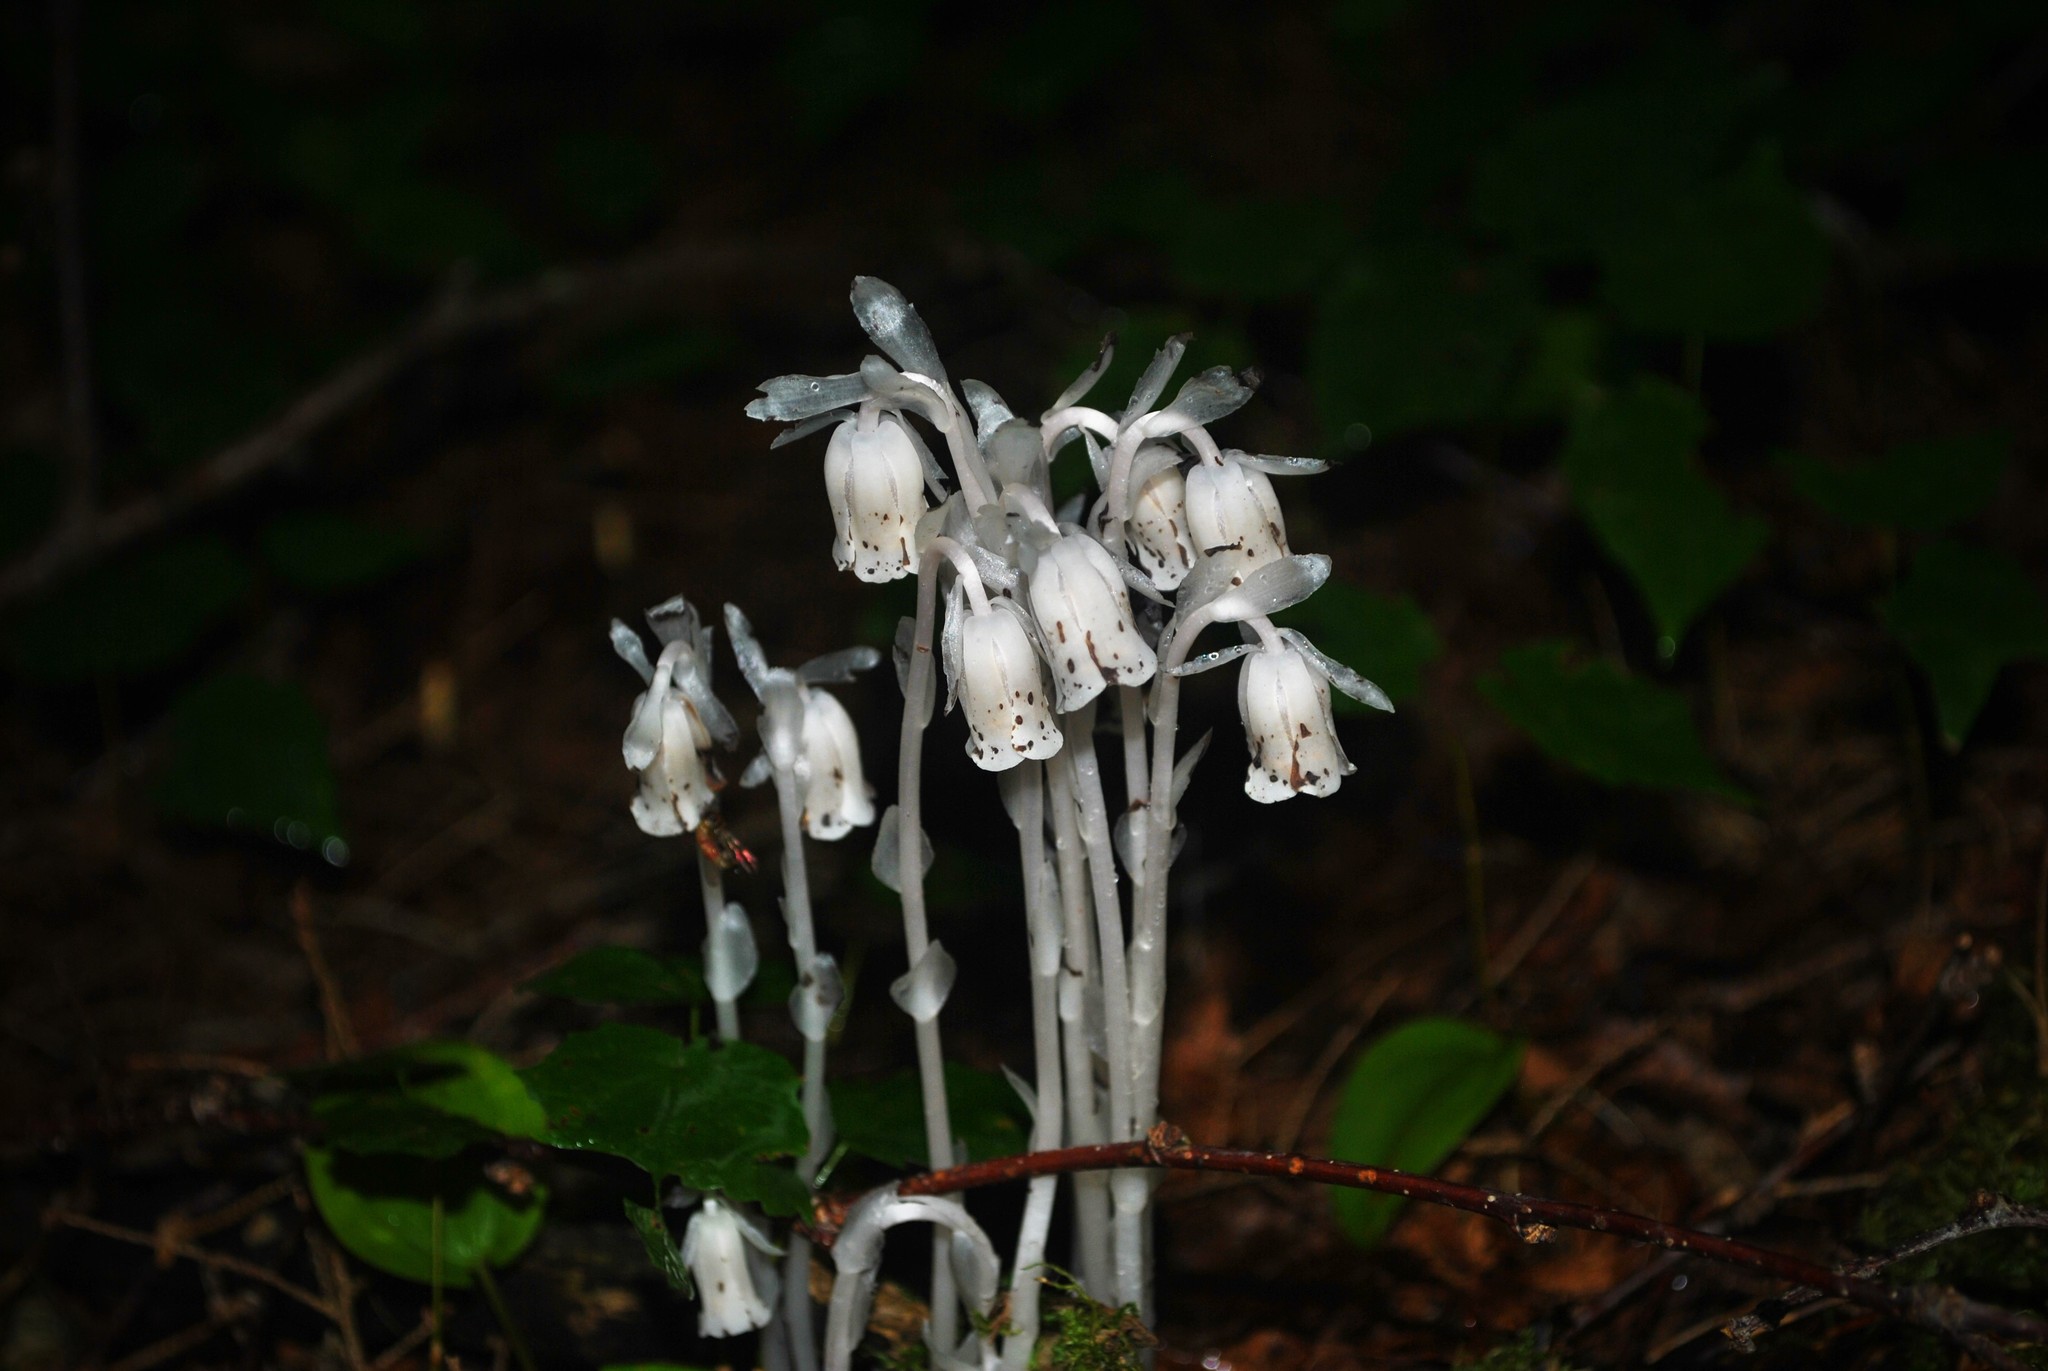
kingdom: Plantae
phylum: Tracheophyta
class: Magnoliopsida
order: Ericales
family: Ericaceae
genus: Monotropa
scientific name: Monotropa uniflora
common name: Convulsion root
